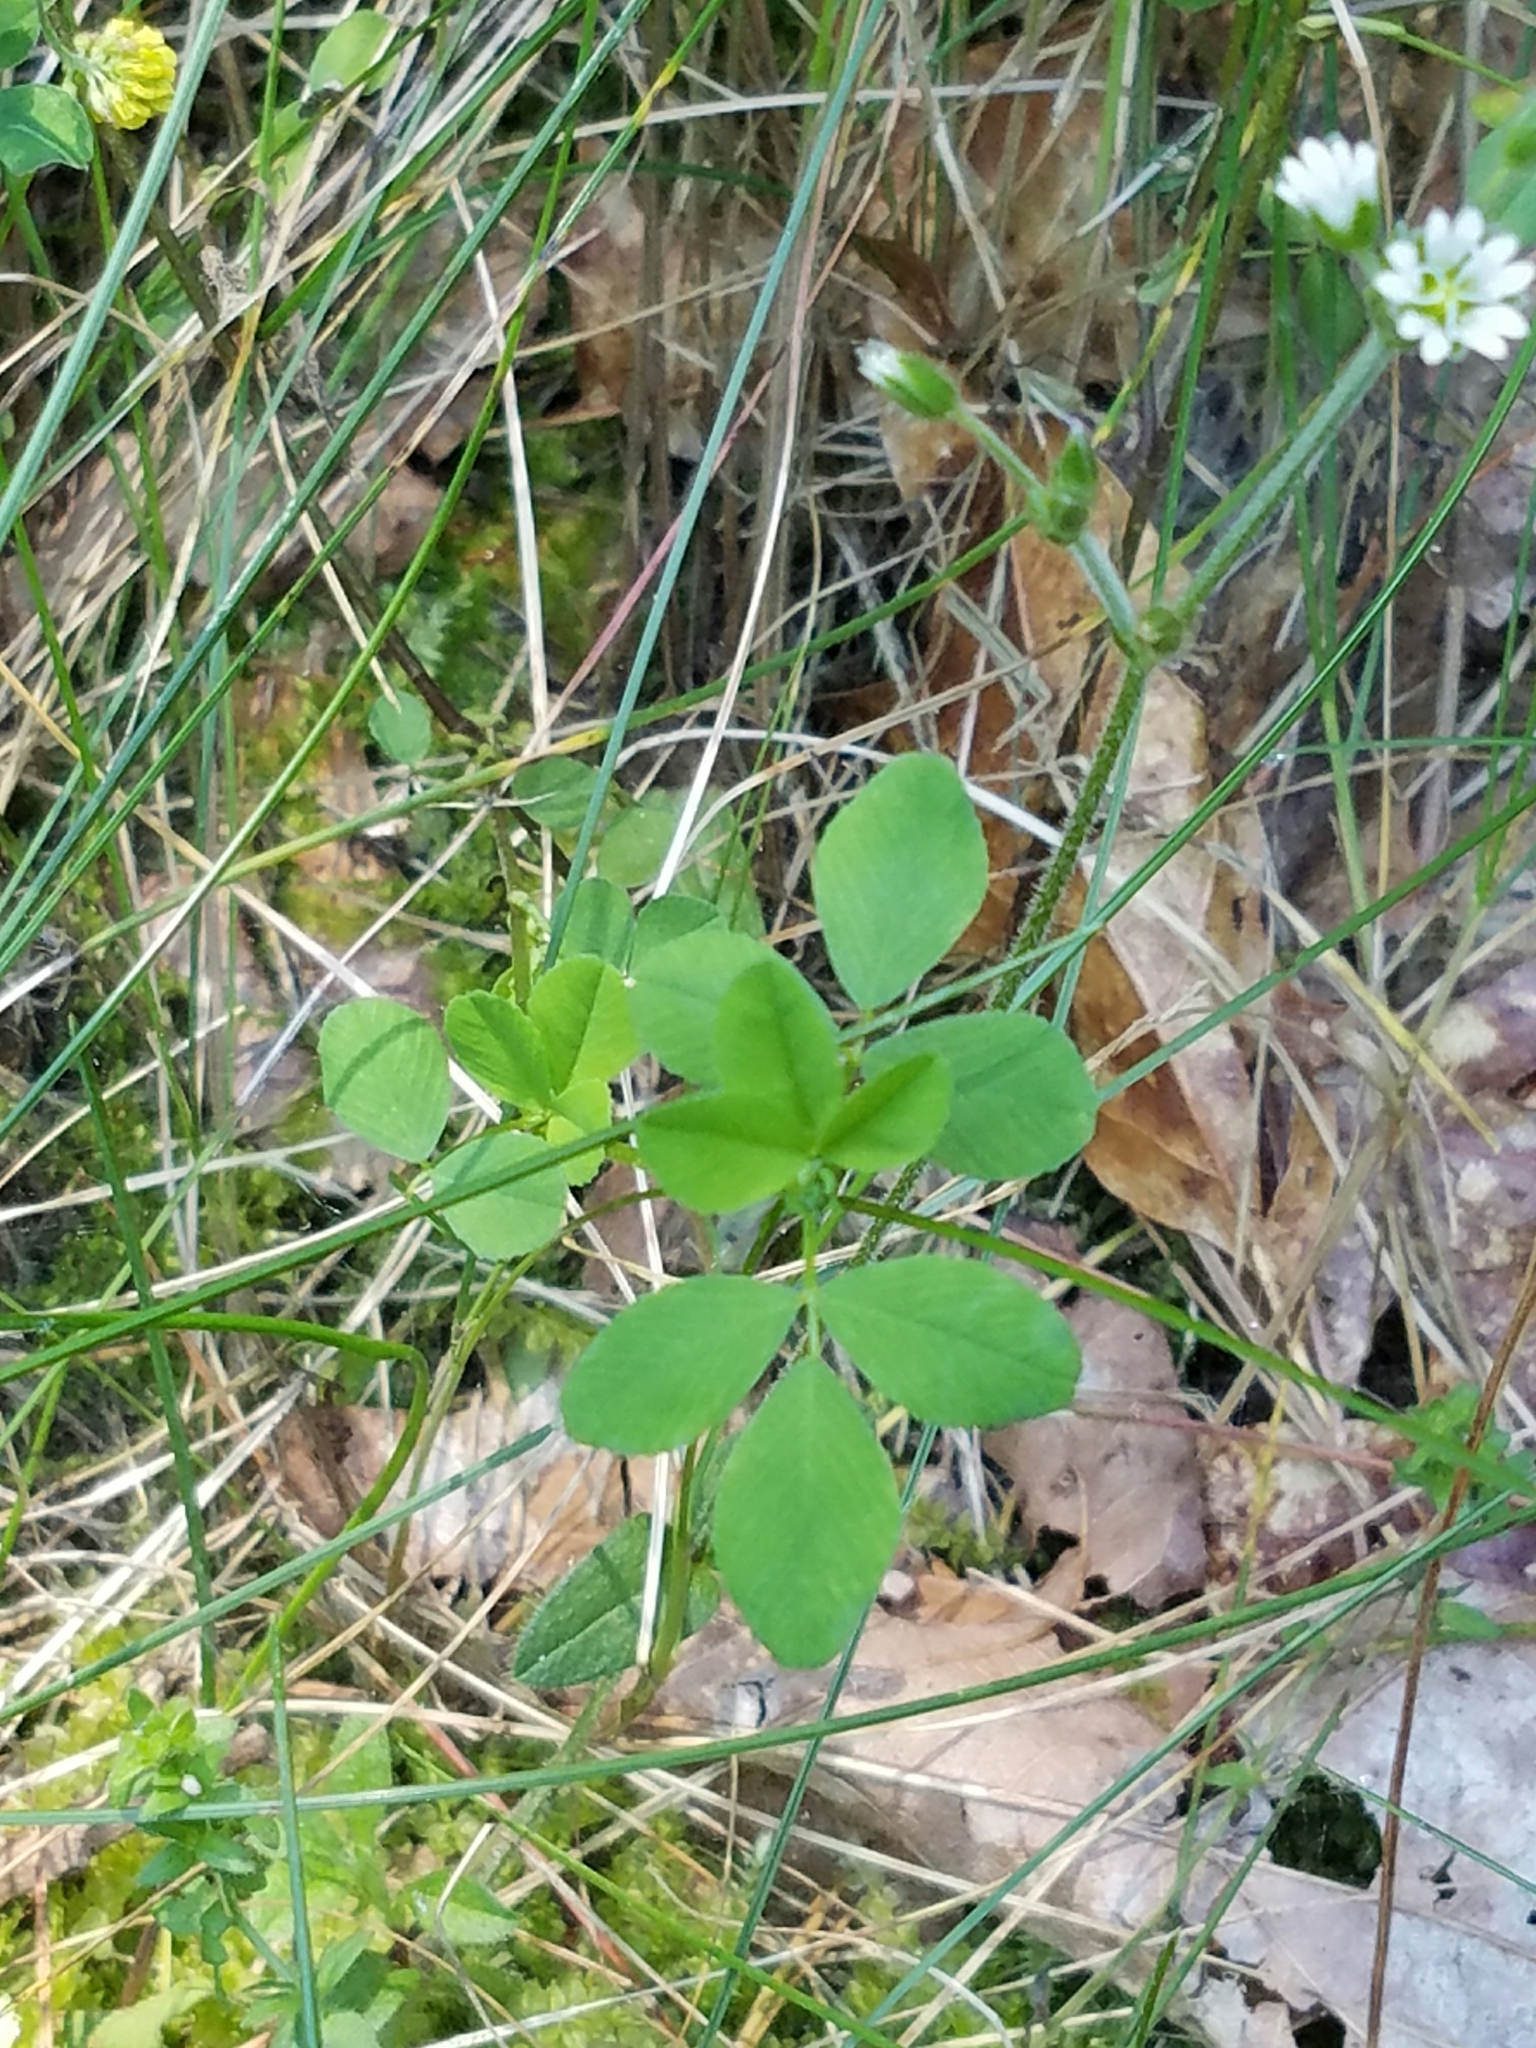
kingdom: Plantae
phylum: Tracheophyta
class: Magnoliopsida
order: Caryophyllales
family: Caryophyllaceae
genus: Cerastium
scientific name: Cerastium fontanum
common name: Common mouse-ear
